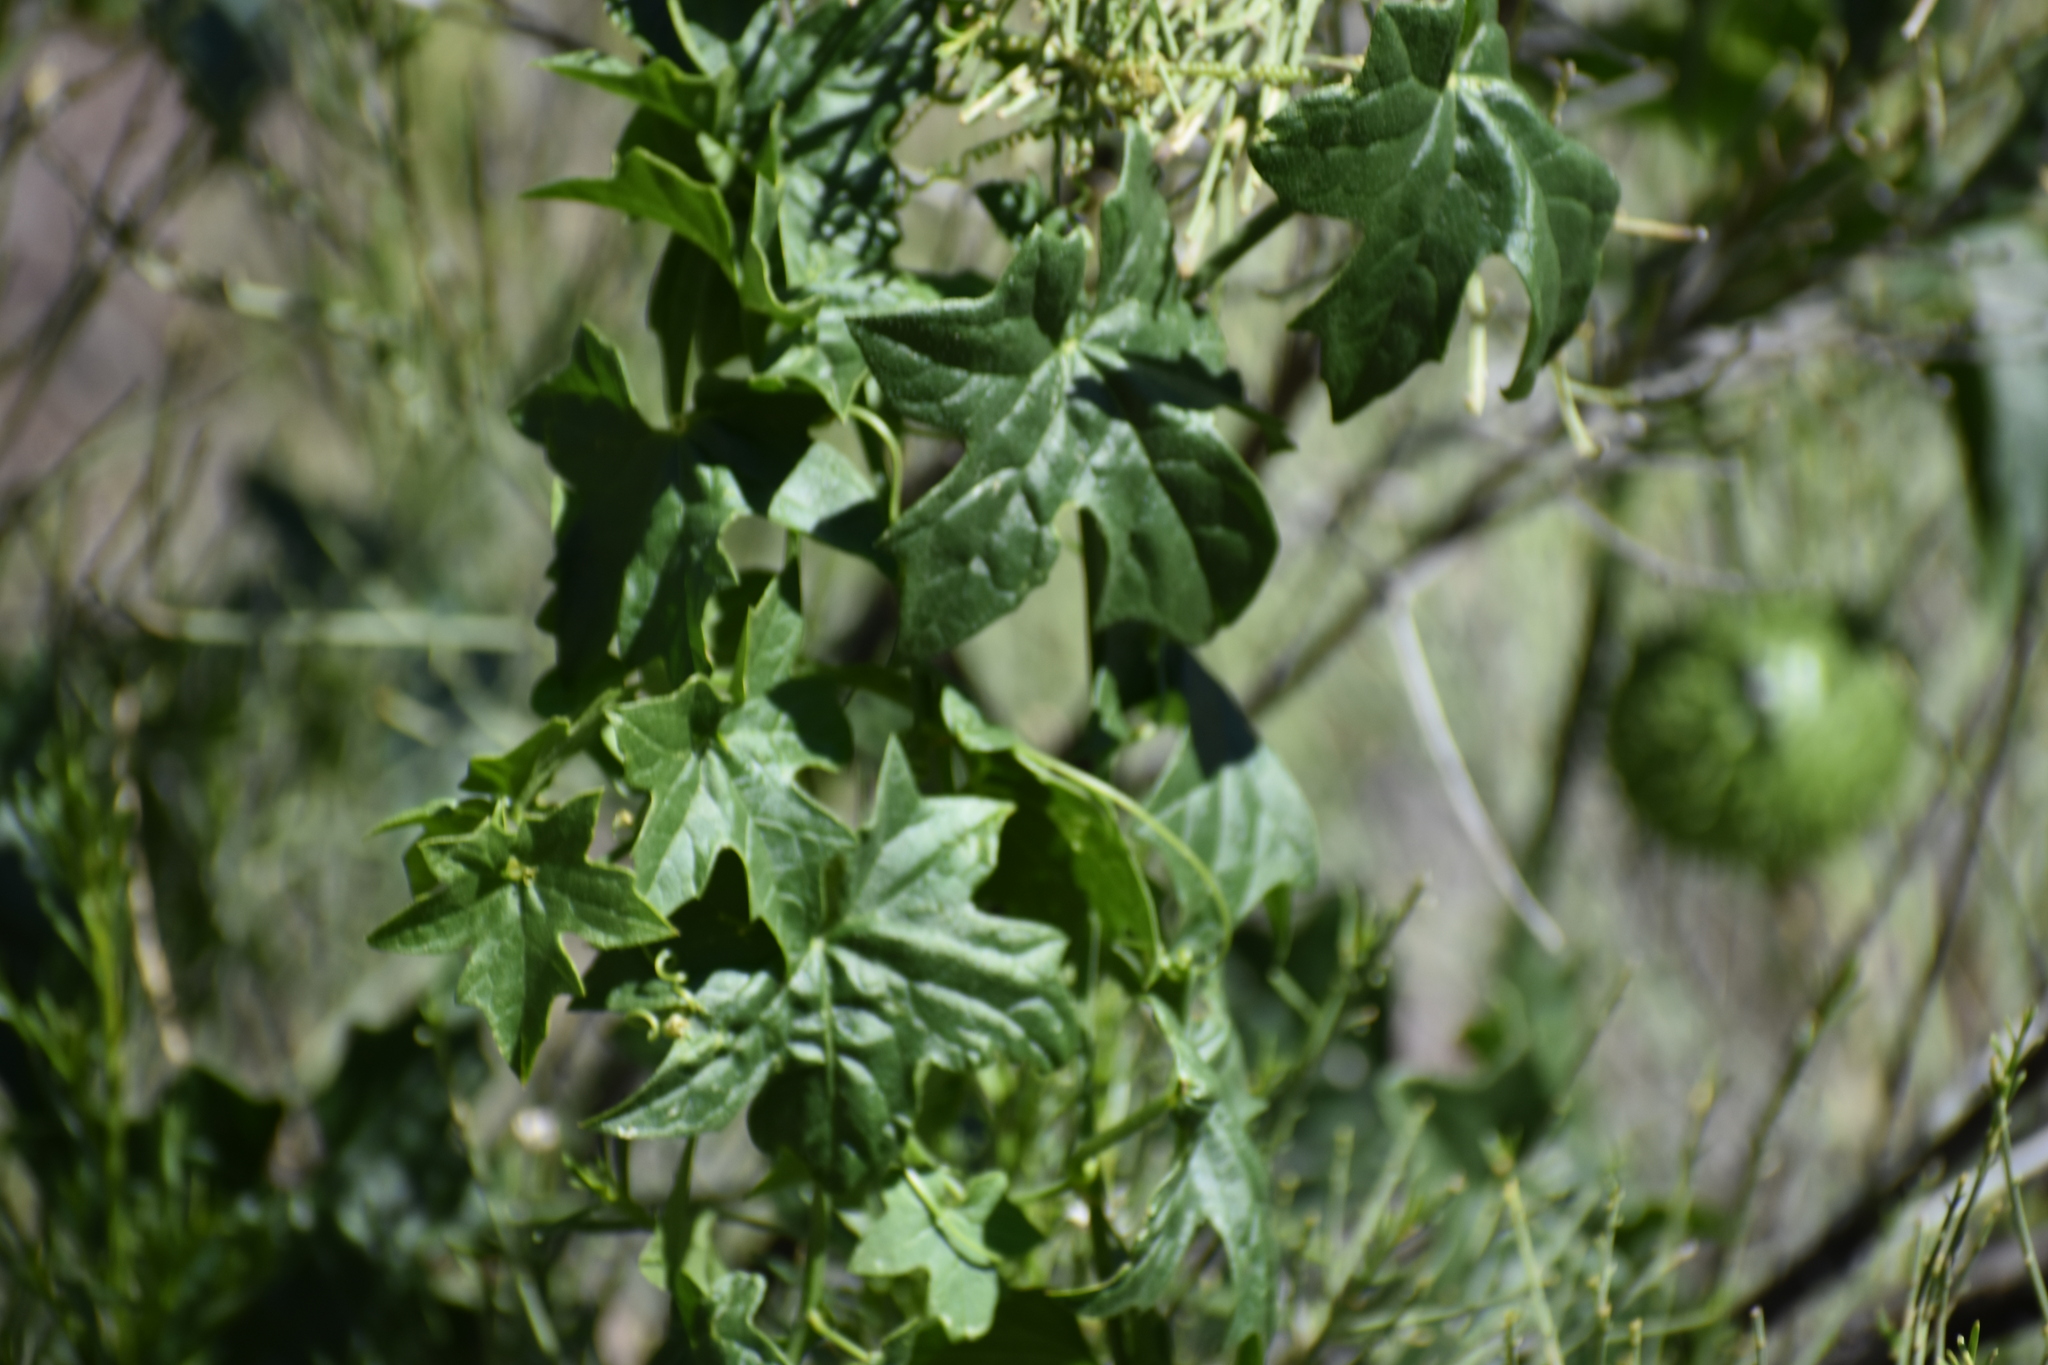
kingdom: Plantae
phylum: Tracheophyta
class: Magnoliopsida
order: Cucurbitales
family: Cucurbitaceae
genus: Marah
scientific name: Marah gilensis
